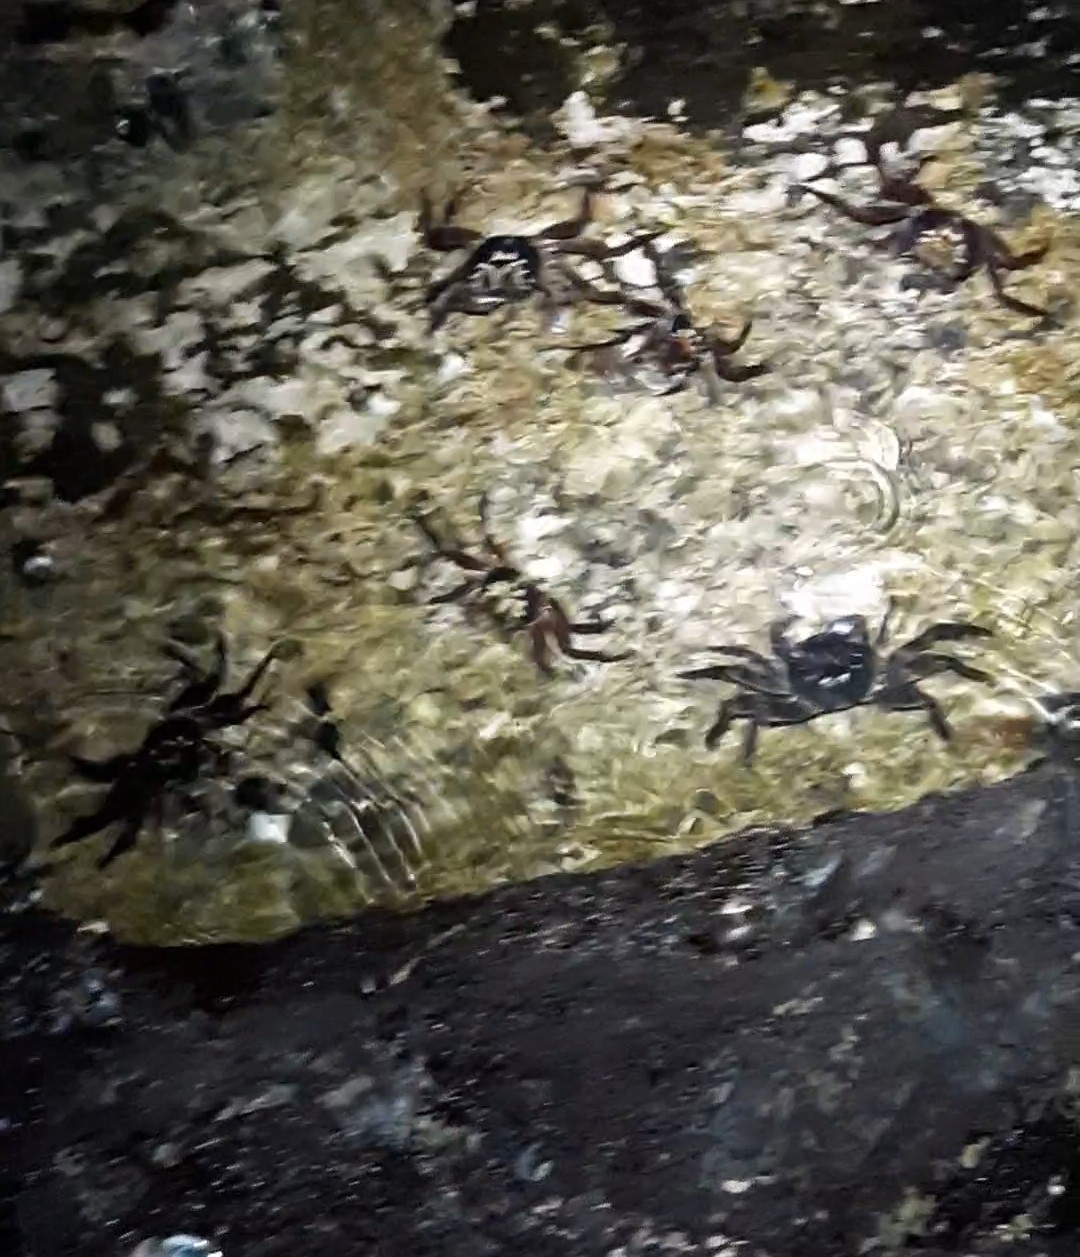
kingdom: Animalia
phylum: Arthropoda
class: Malacostraca
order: Decapoda
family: Grapsidae
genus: Leptograpsus
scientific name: Leptograpsus variegatus
